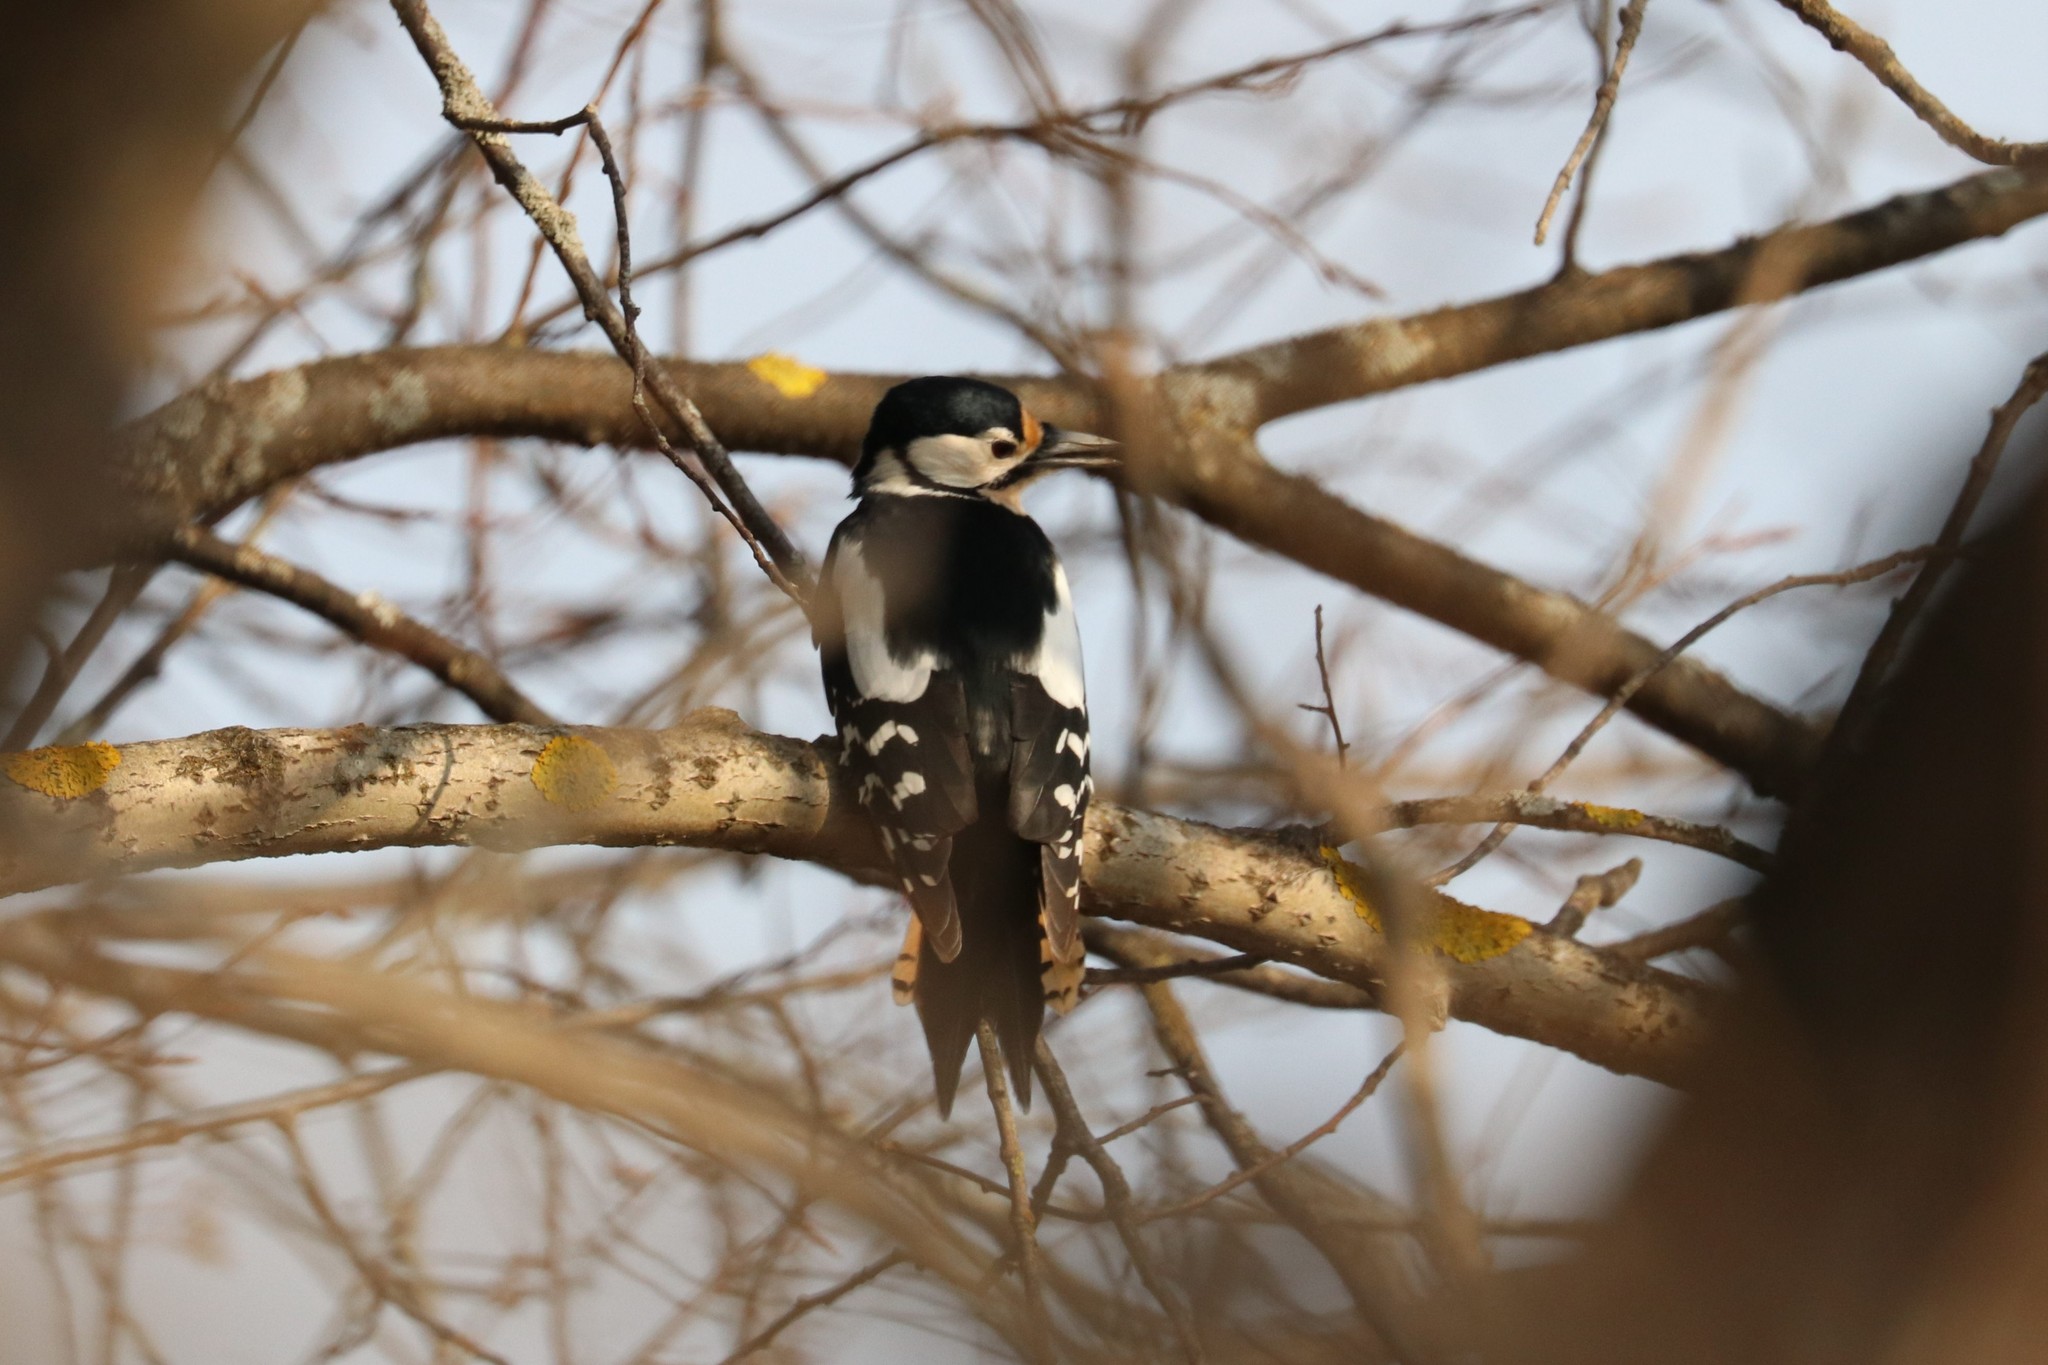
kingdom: Animalia
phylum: Chordata
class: Aves
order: Piciformes
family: Picidae
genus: Dendrocopos
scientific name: Dendrocopos major
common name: Great spotted woodpecker
